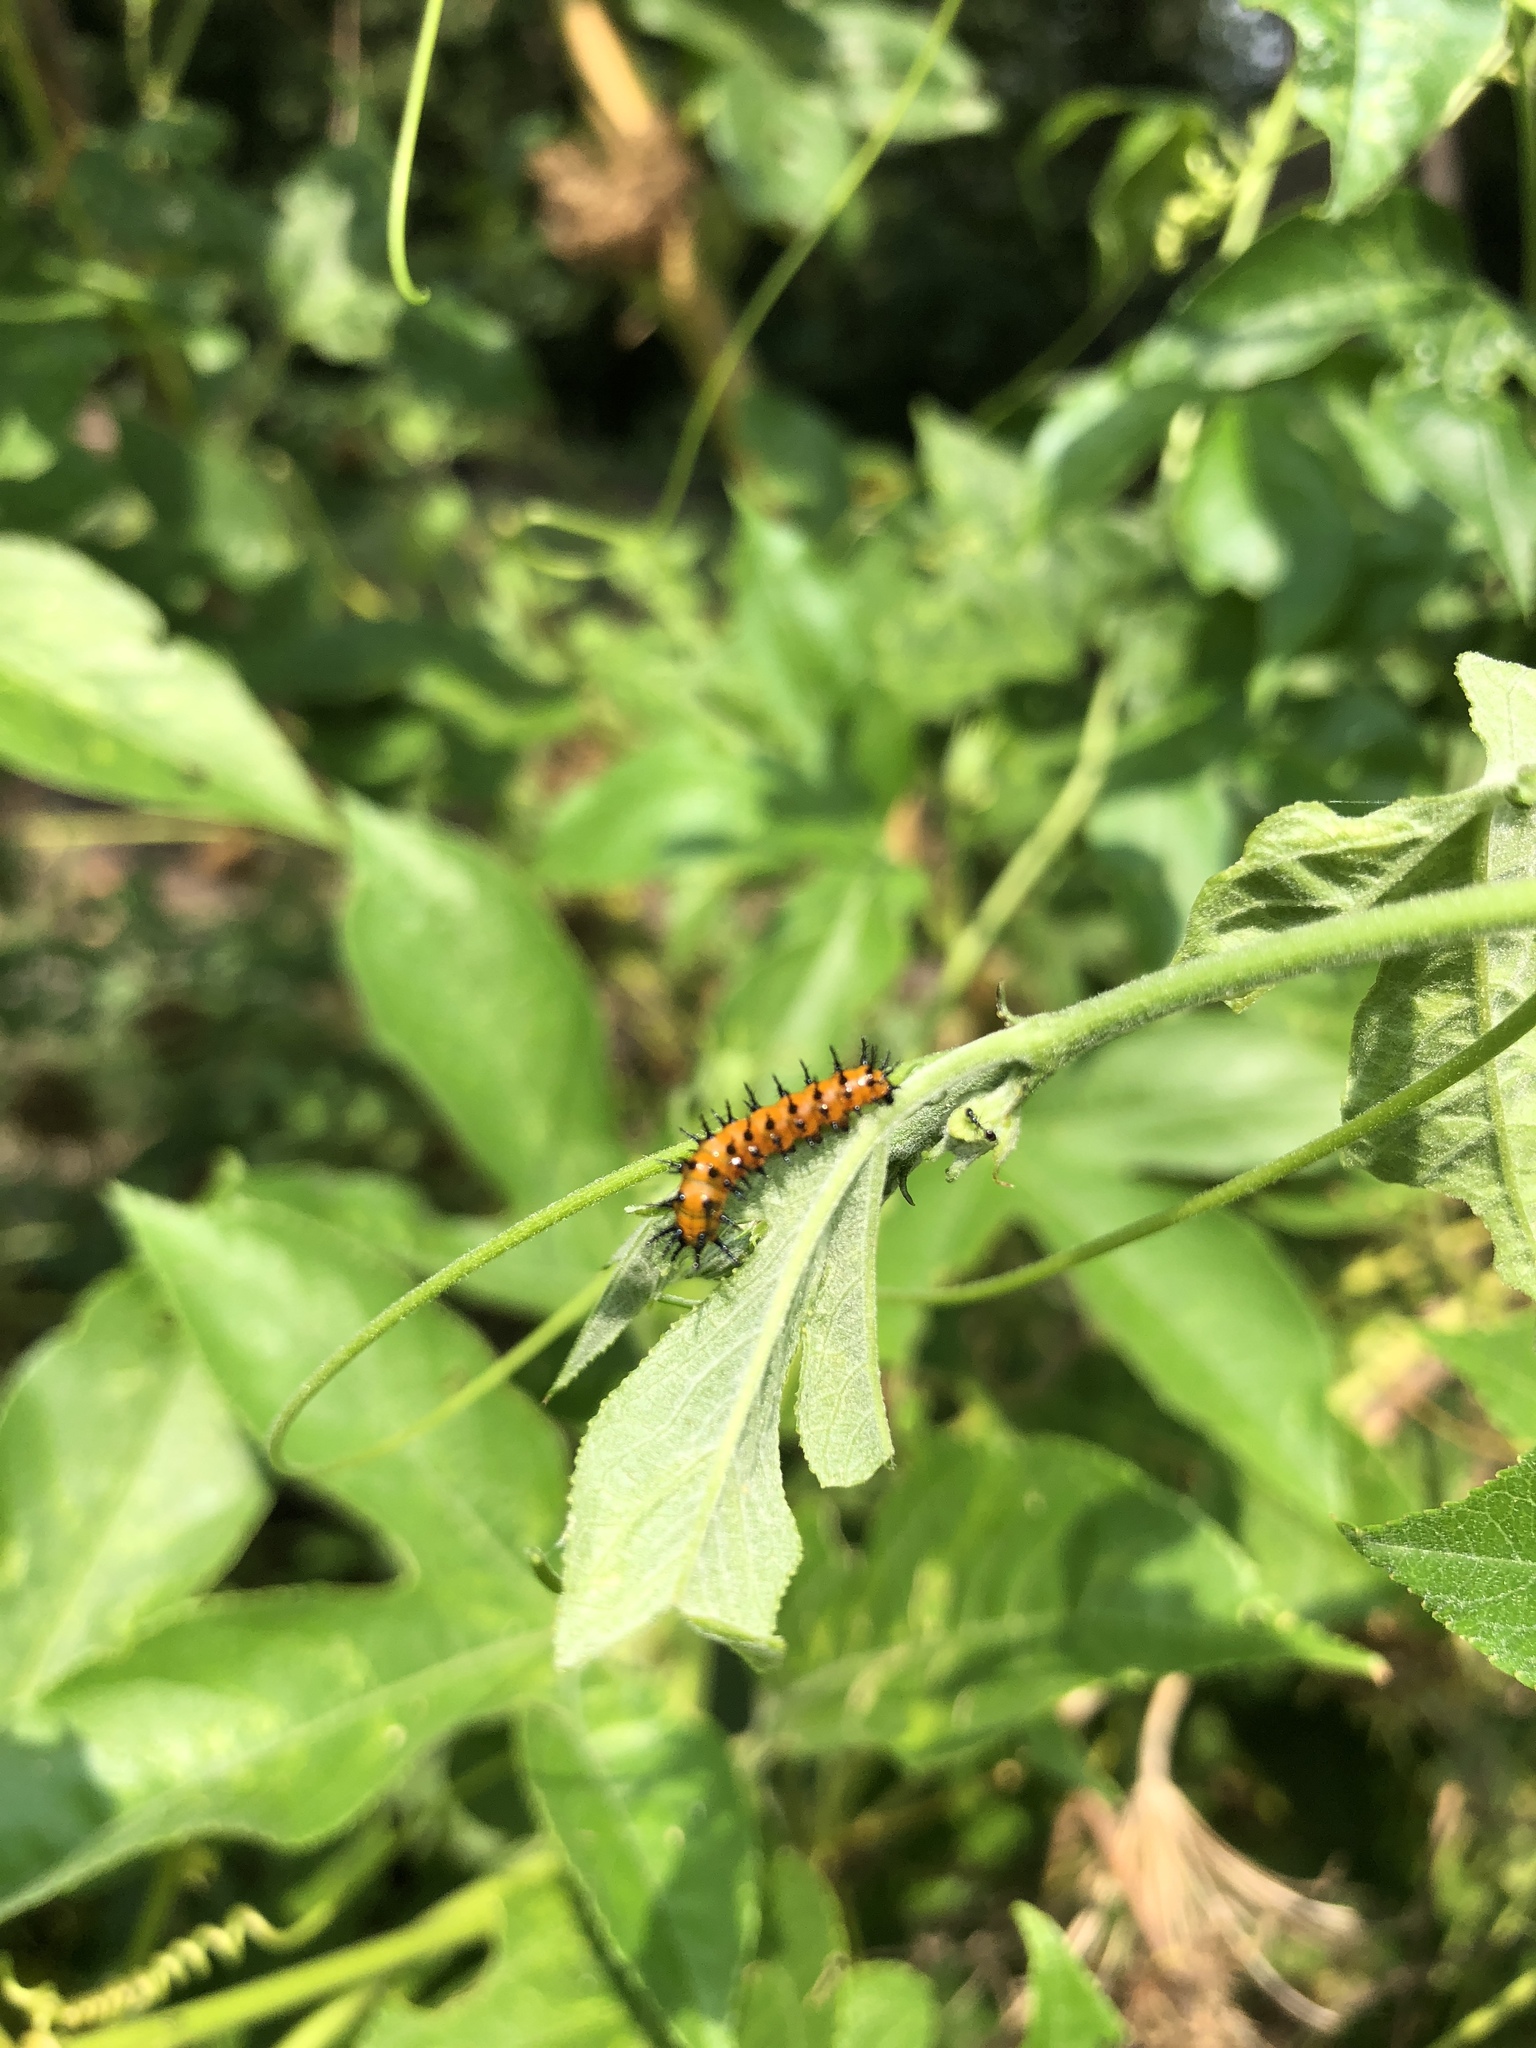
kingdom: Animalia
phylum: Arthropoda
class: Insecta
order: Lepidoptera
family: Nymphalidae
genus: Dione
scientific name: Dione vanillae
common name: Gulf fritillary
